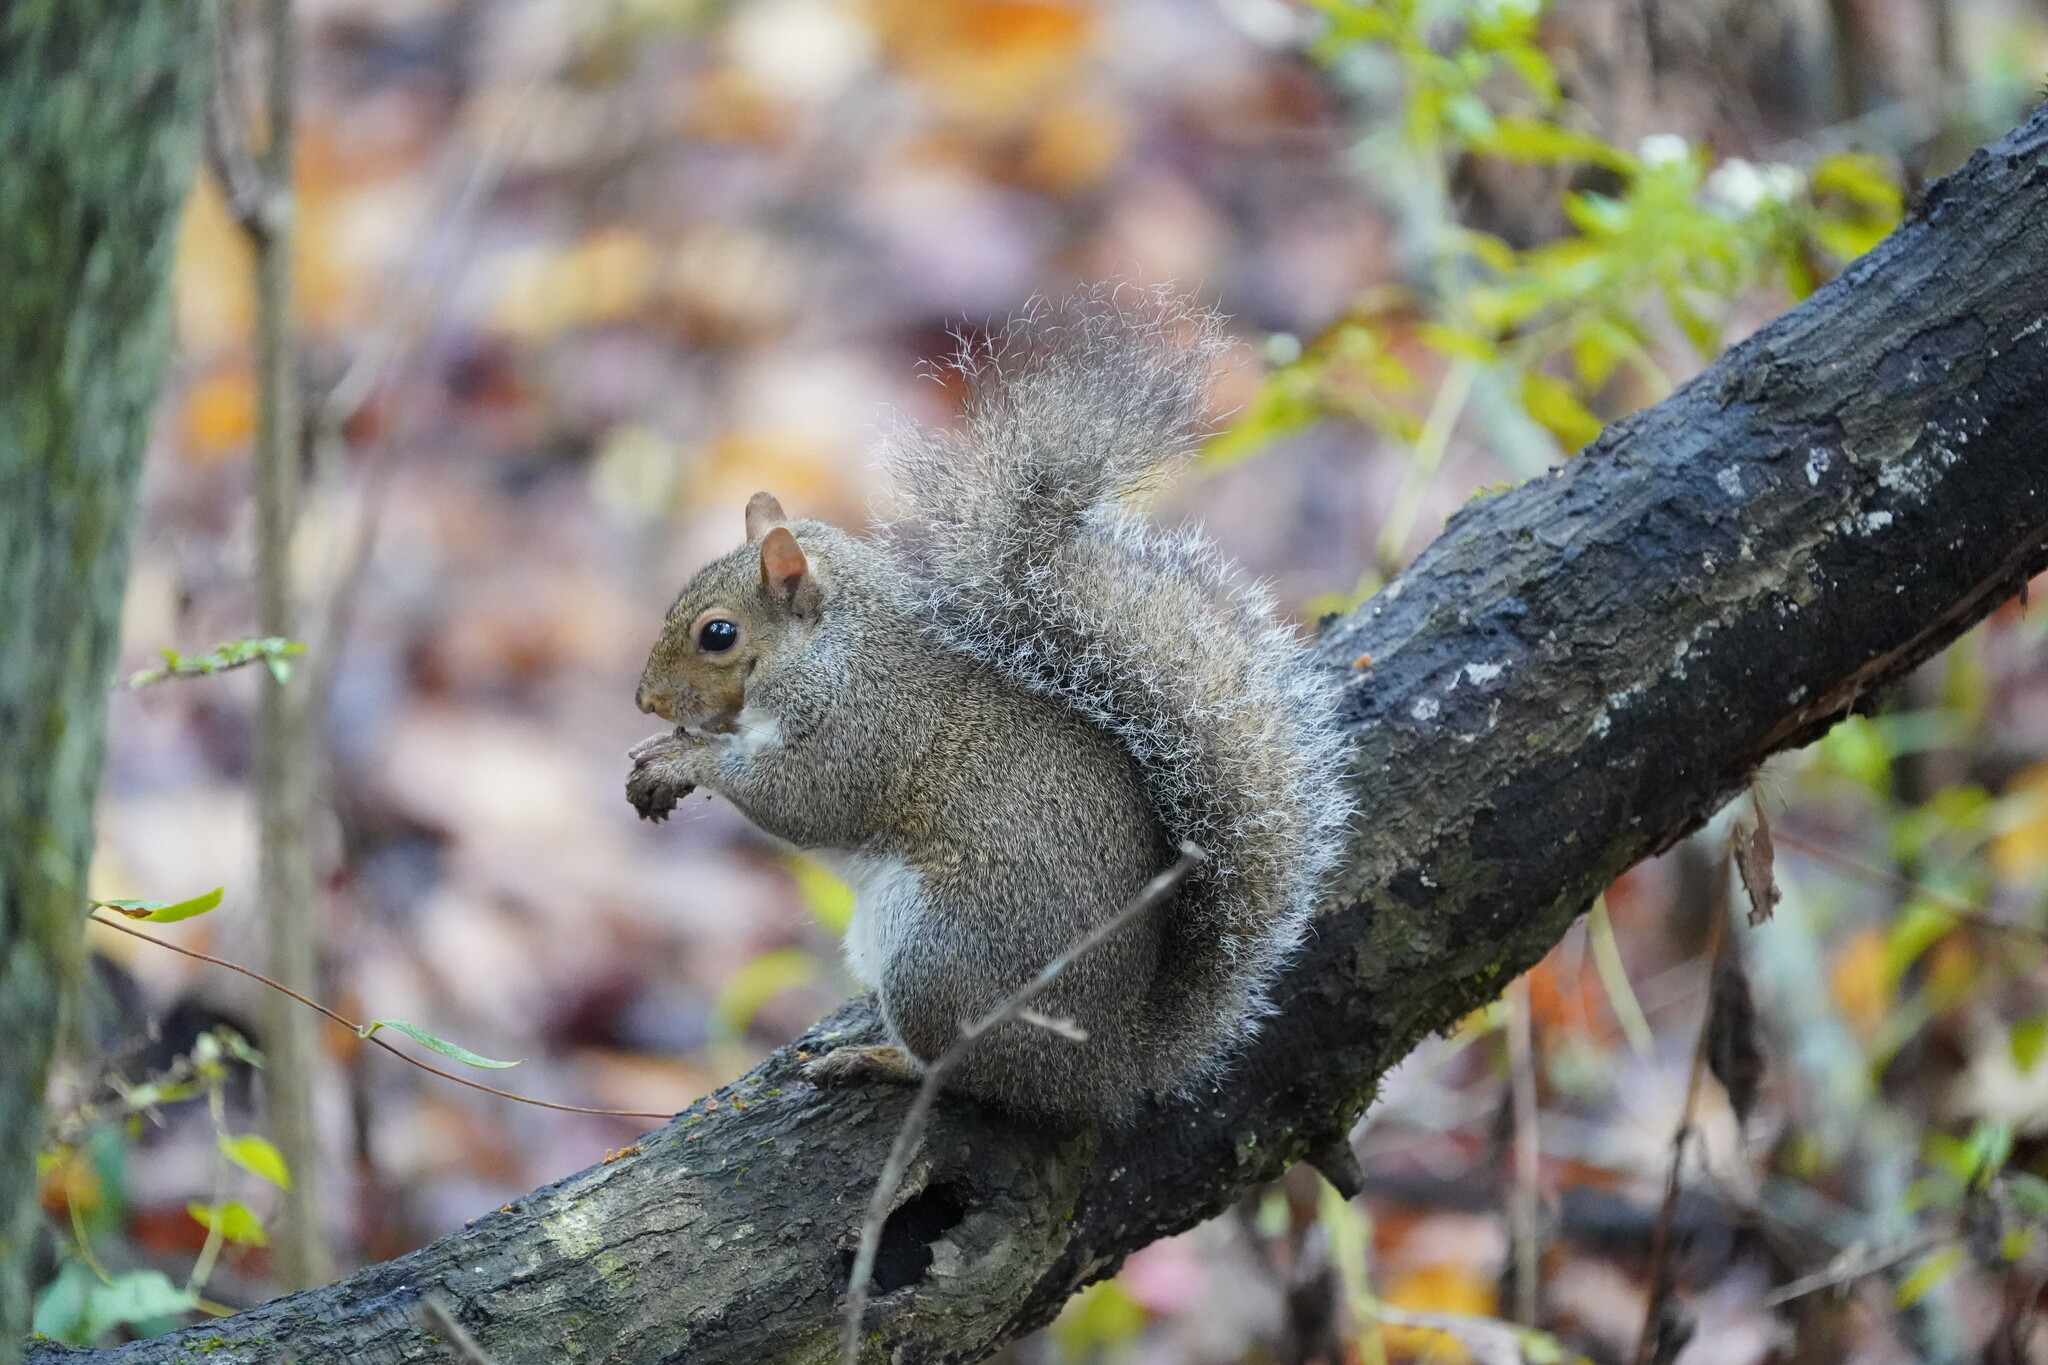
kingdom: Animalia
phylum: Chordata
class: Mammalia
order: Rodentia
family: Sciuridae
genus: Sciurus
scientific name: Sciurus carolinensis
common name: Eastern gray squirrel
